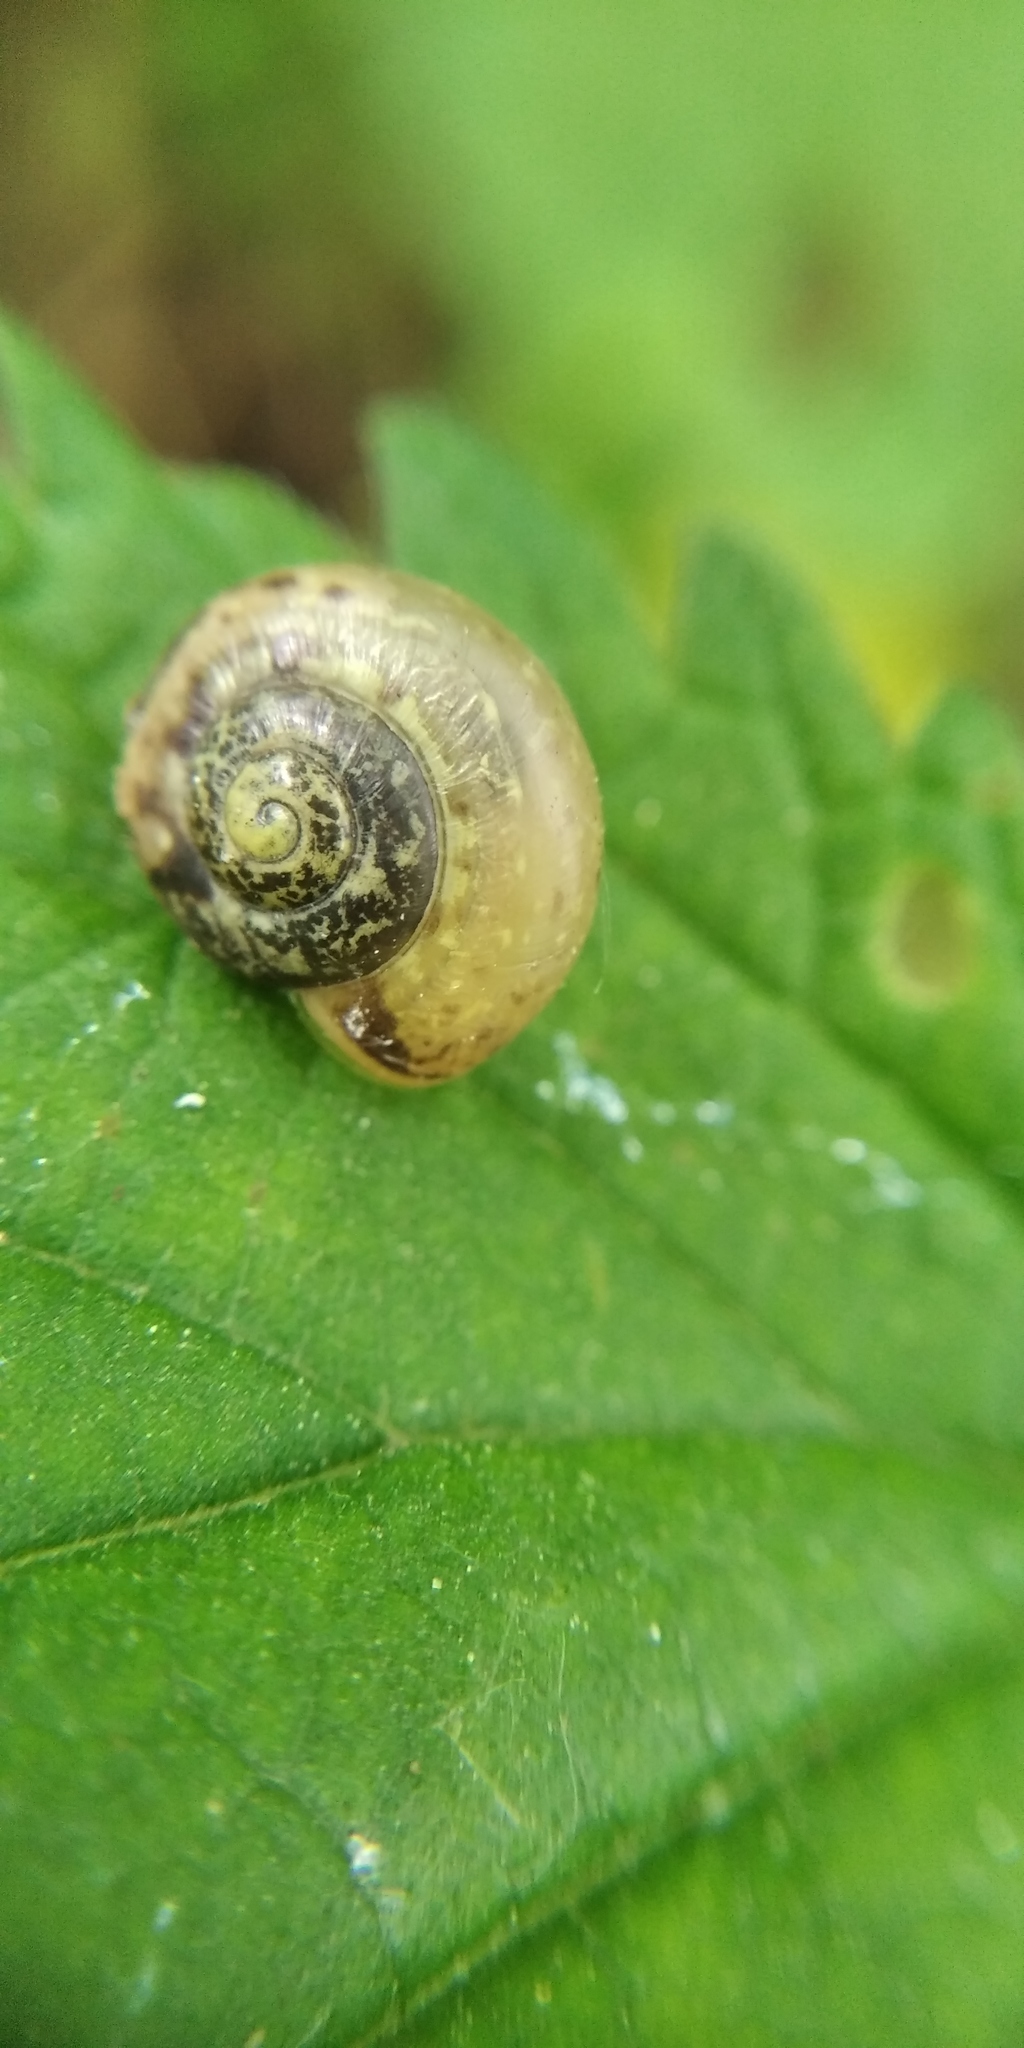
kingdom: Animalia
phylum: Mollusca
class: Gastropoda
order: Stylommatophora
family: Camaenidae
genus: Fruticicola
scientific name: Fruticicola fruticum
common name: Bush snail
